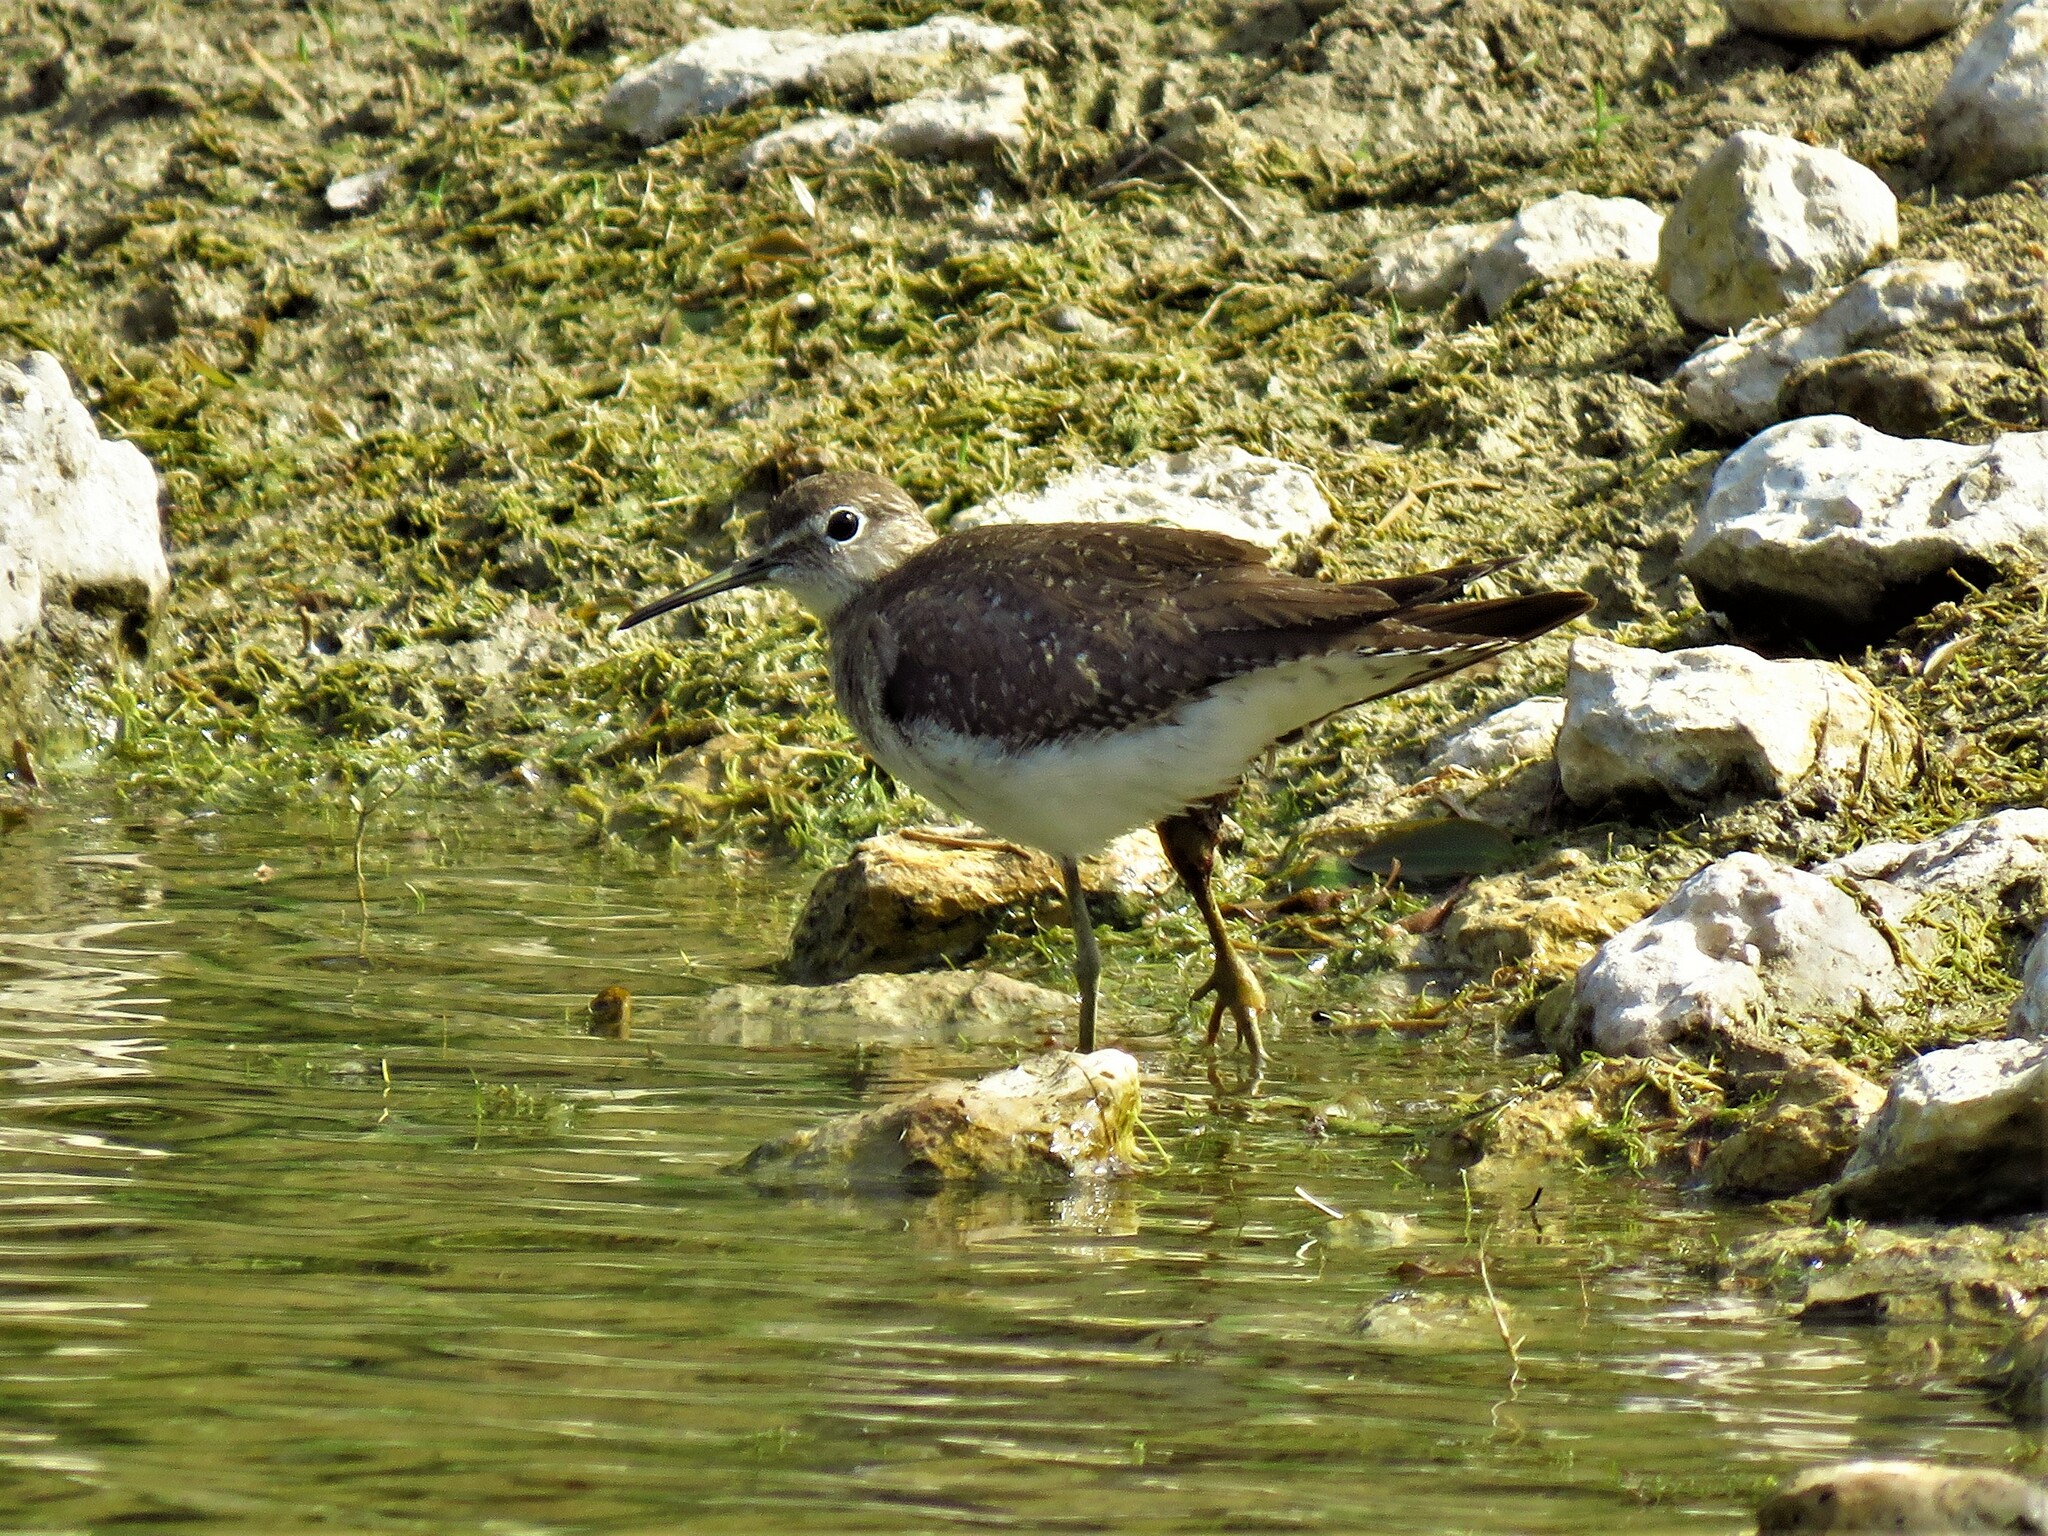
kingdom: Animalia
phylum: Chordata
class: Aves
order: Charadriiformes
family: Scolopacidae
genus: Tringa
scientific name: Tringa solitaria
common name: Solitary sandpiper
